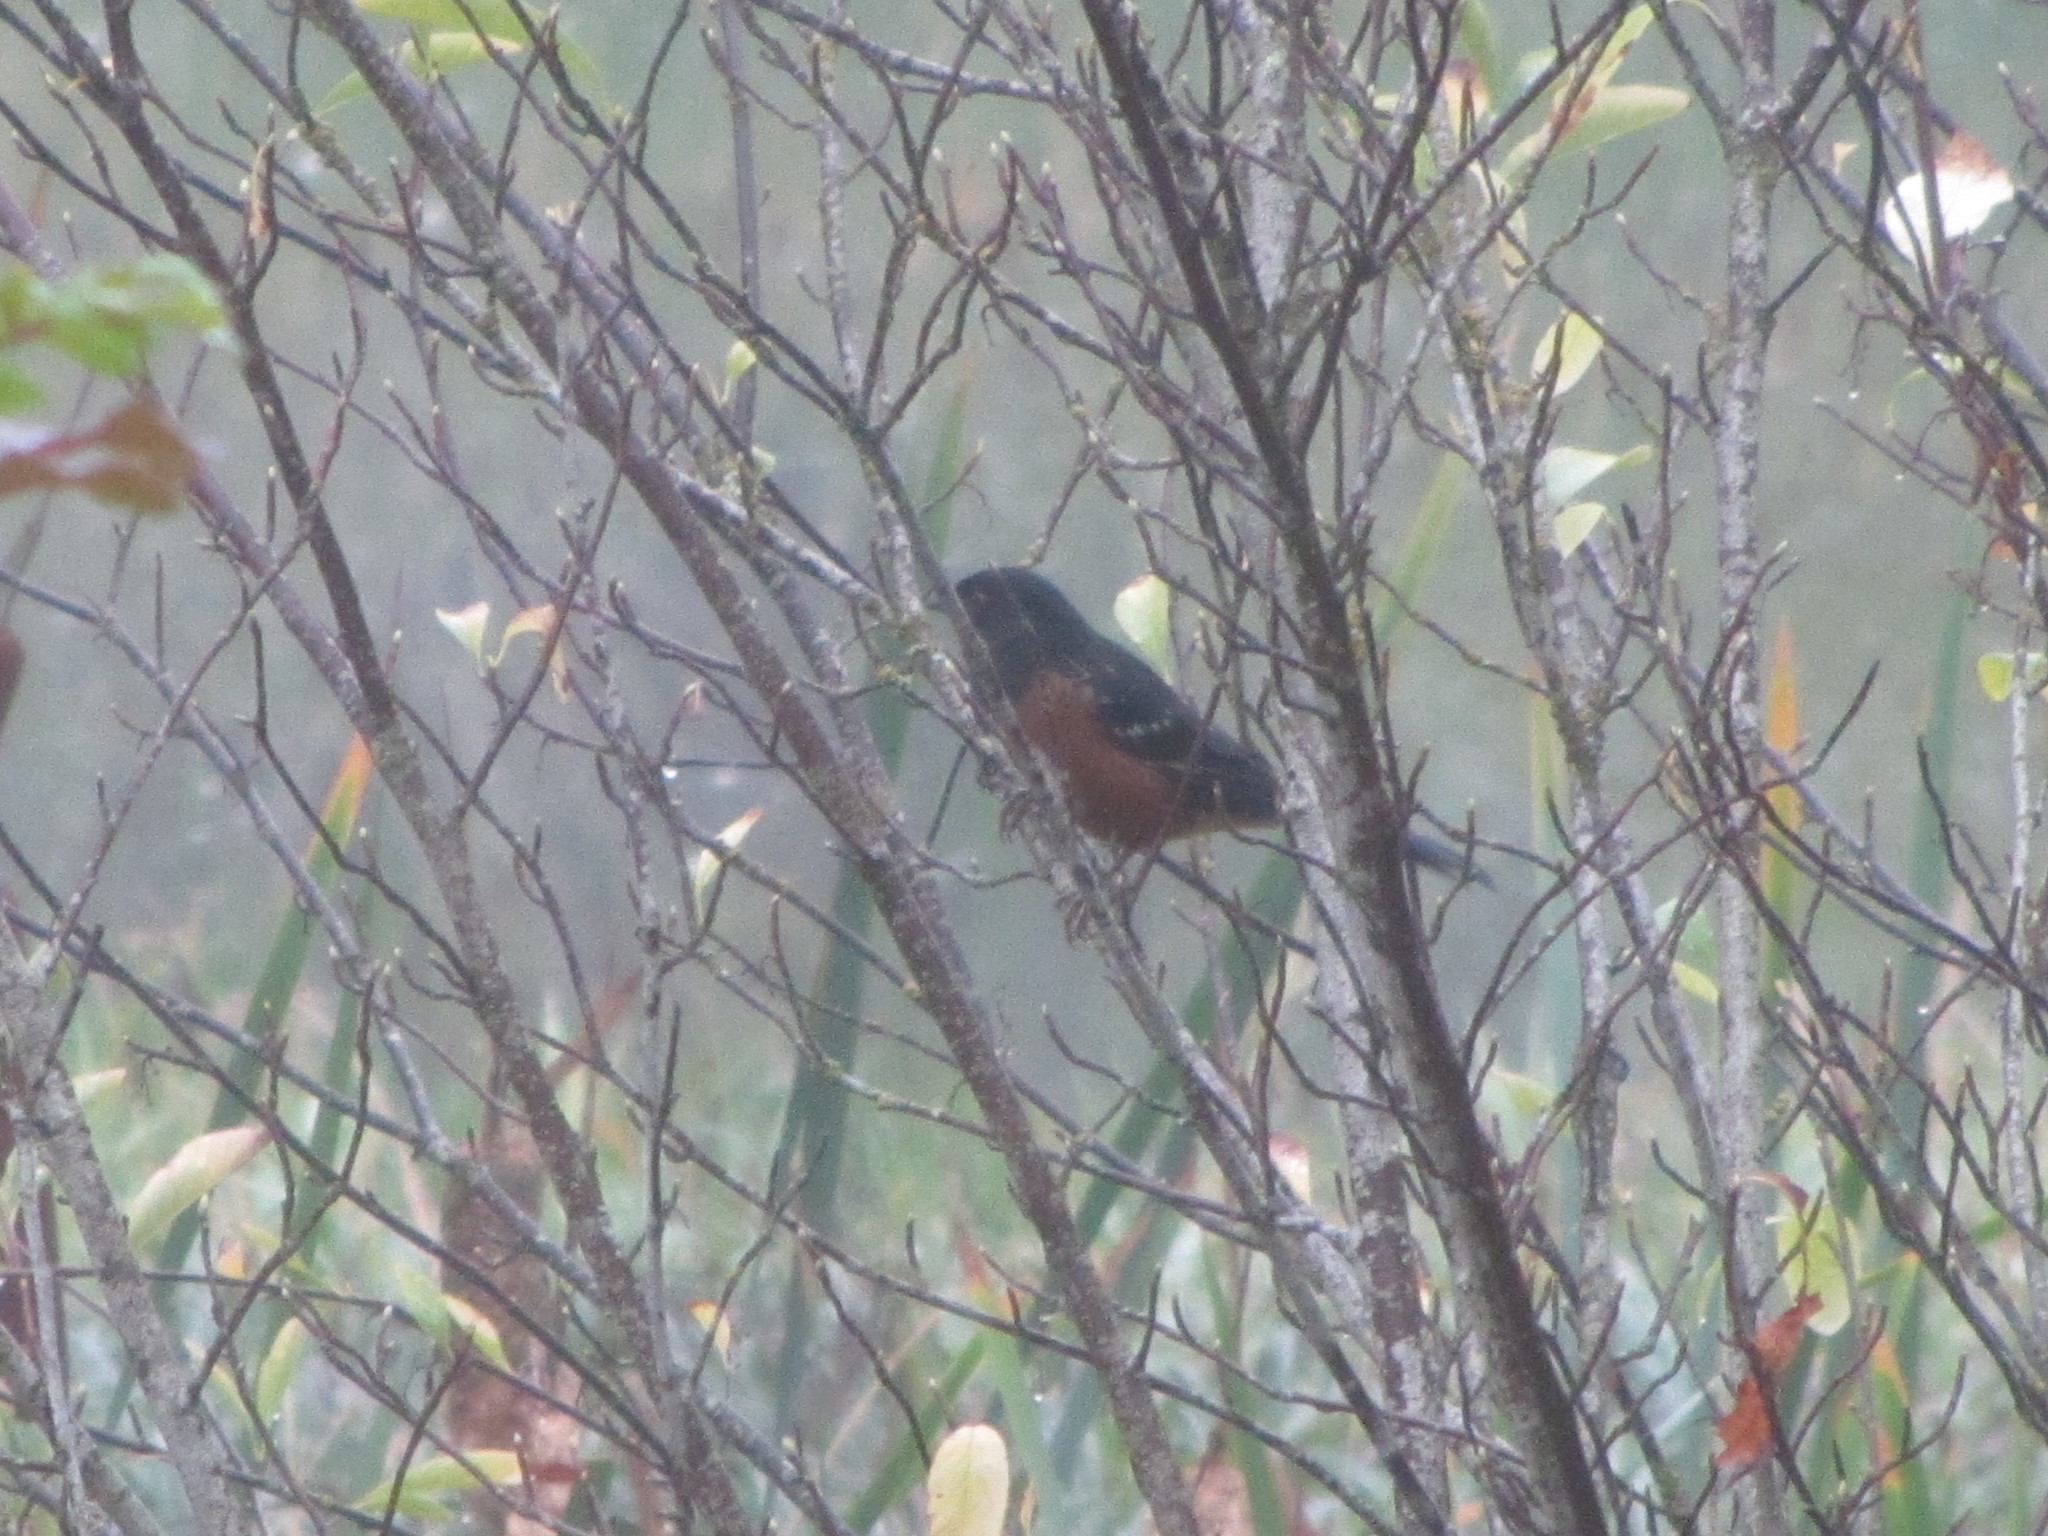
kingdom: Animalia
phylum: Chordata
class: Aves
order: Passeriformes
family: Passerellidae
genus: Pipilo
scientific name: Pipilo maculatus
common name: Spotted towhee
